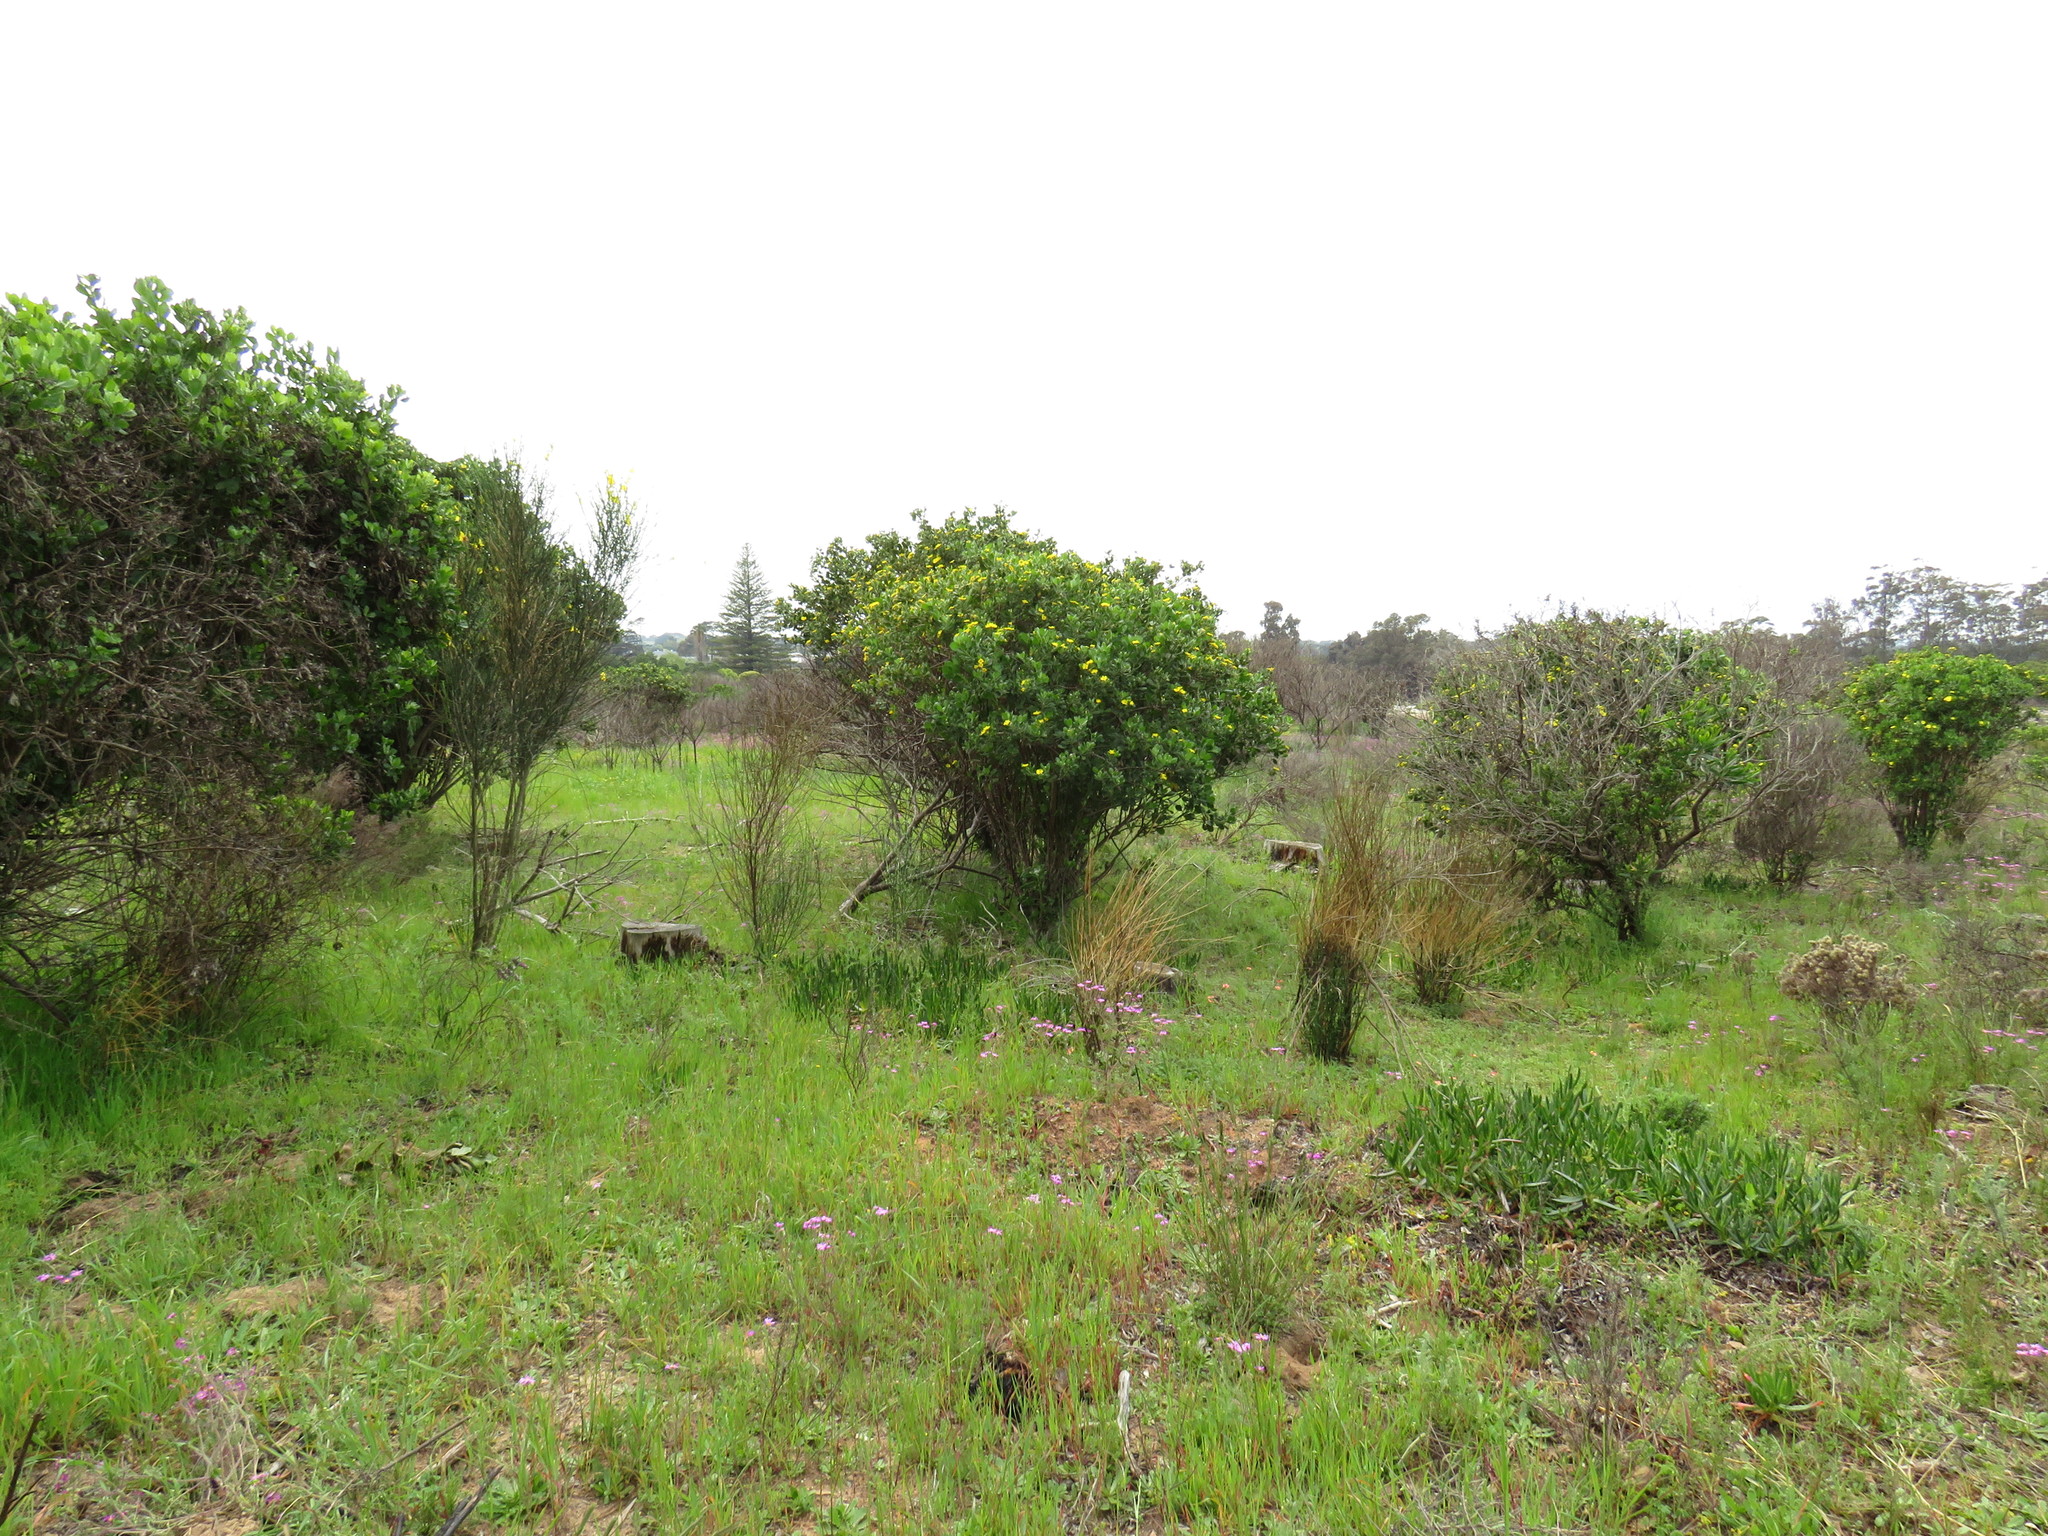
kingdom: Plantae
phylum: Tracheophyta
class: Magnoliopsida
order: Fabales
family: Fabaceae
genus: Spartium
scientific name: Spartium junceum
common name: Spanish broom
